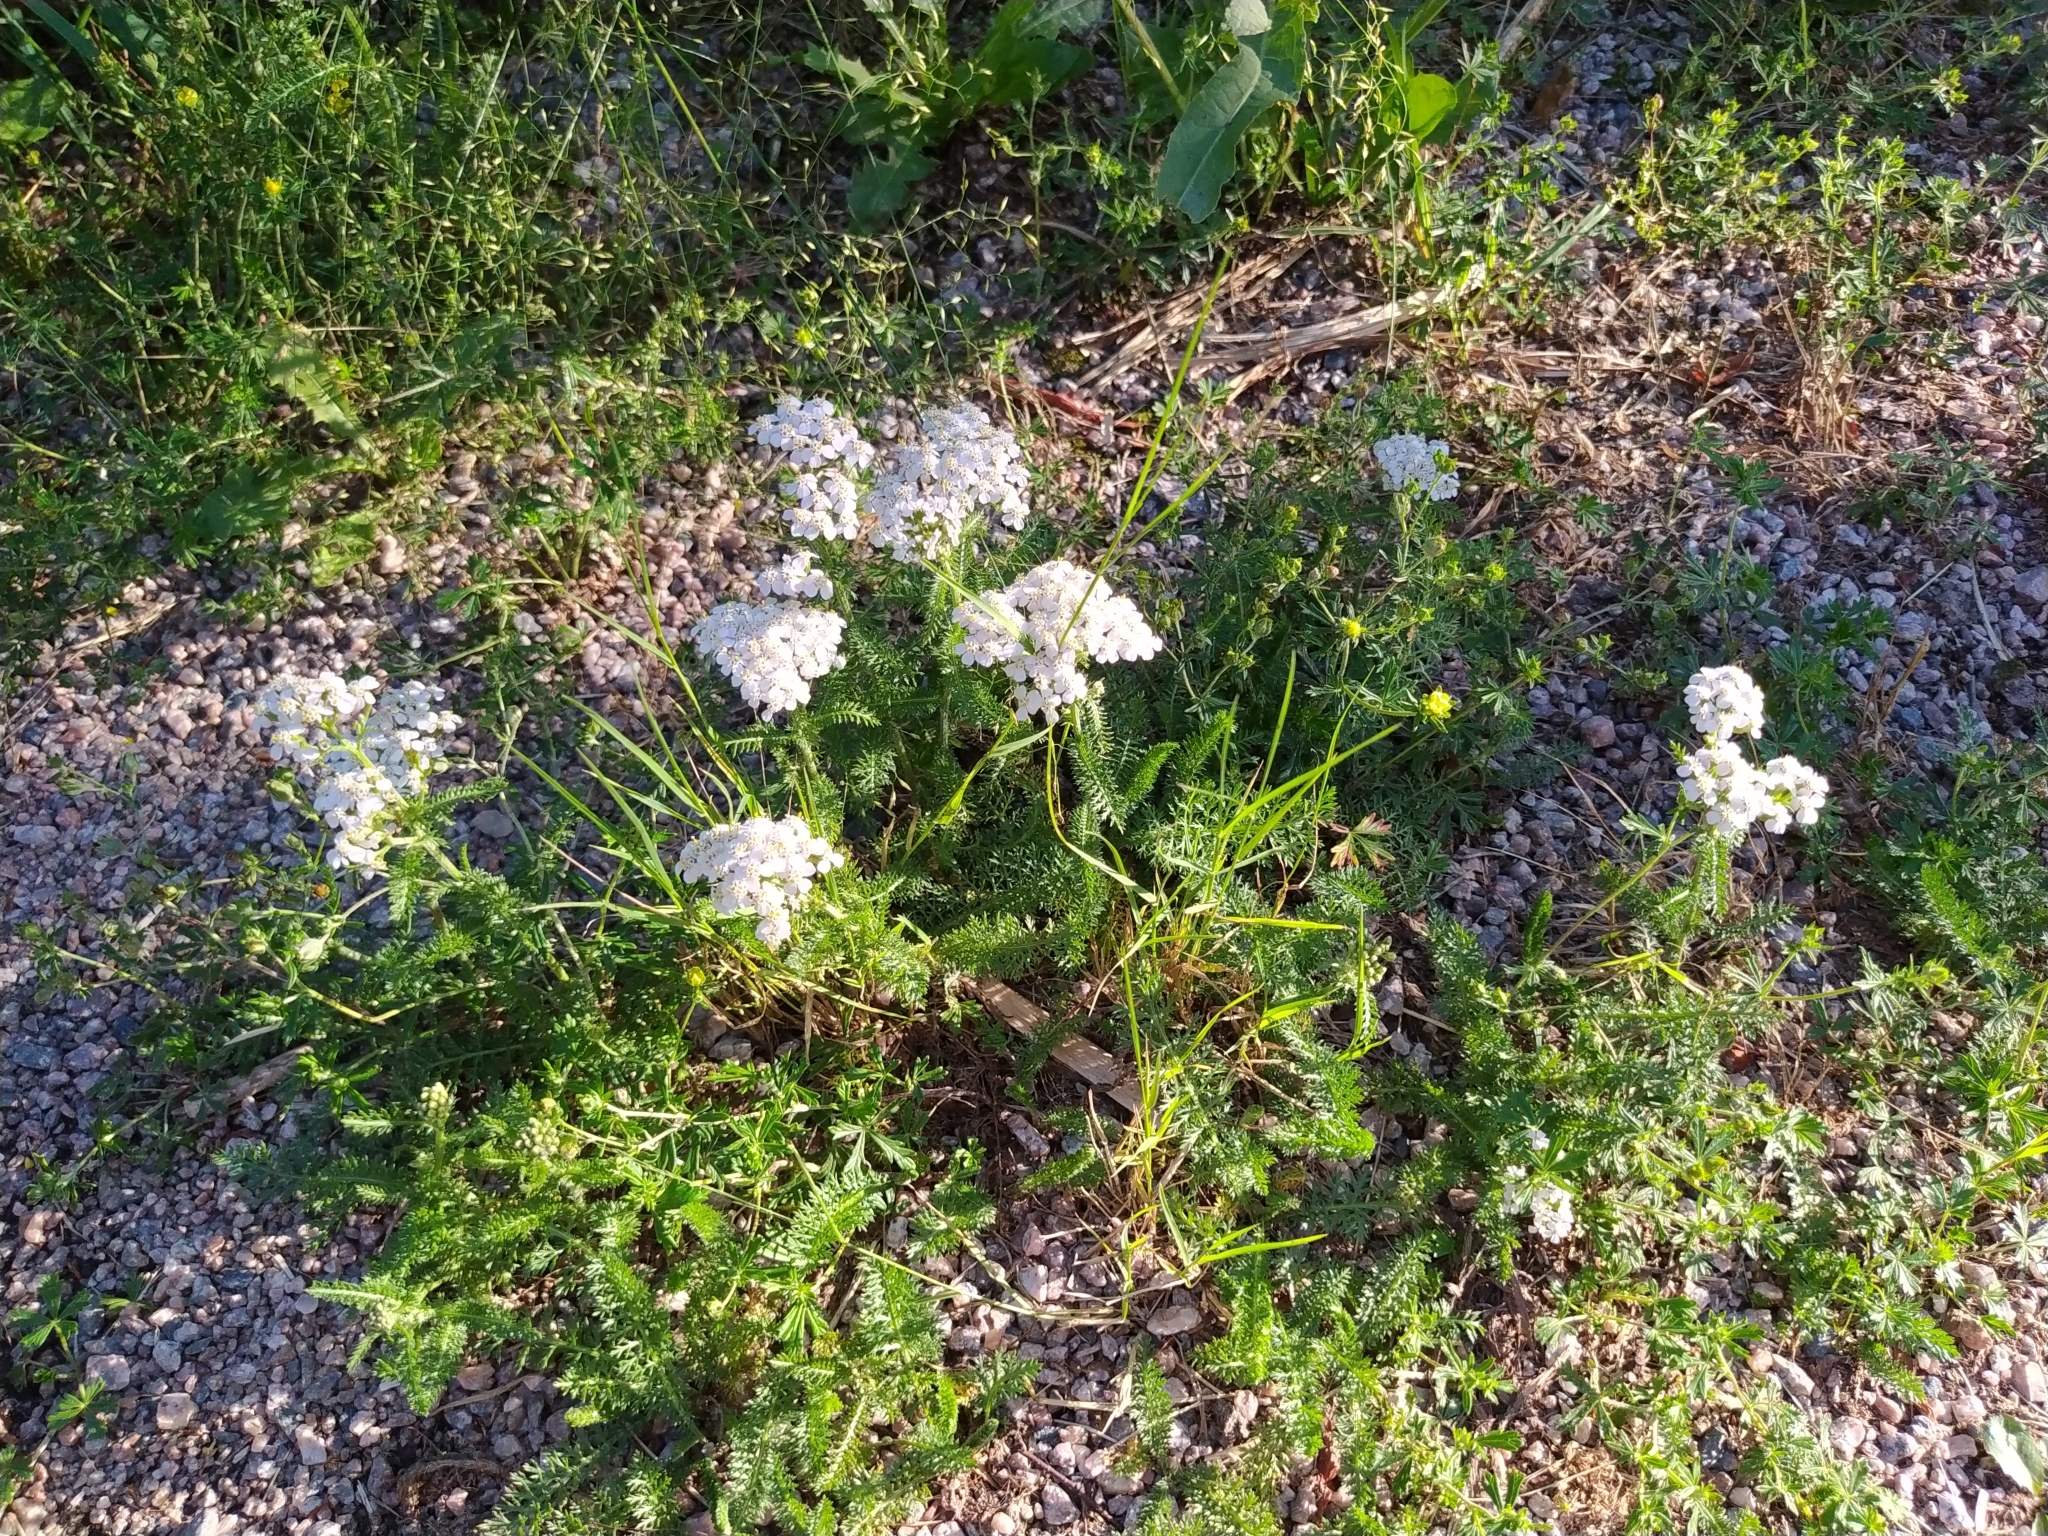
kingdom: Plantae
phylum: Tracheophyta
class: Magnoliopsida
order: Asterales
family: Asteraceae
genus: Achillea
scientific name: Achillea millefolium
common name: Yarrow
